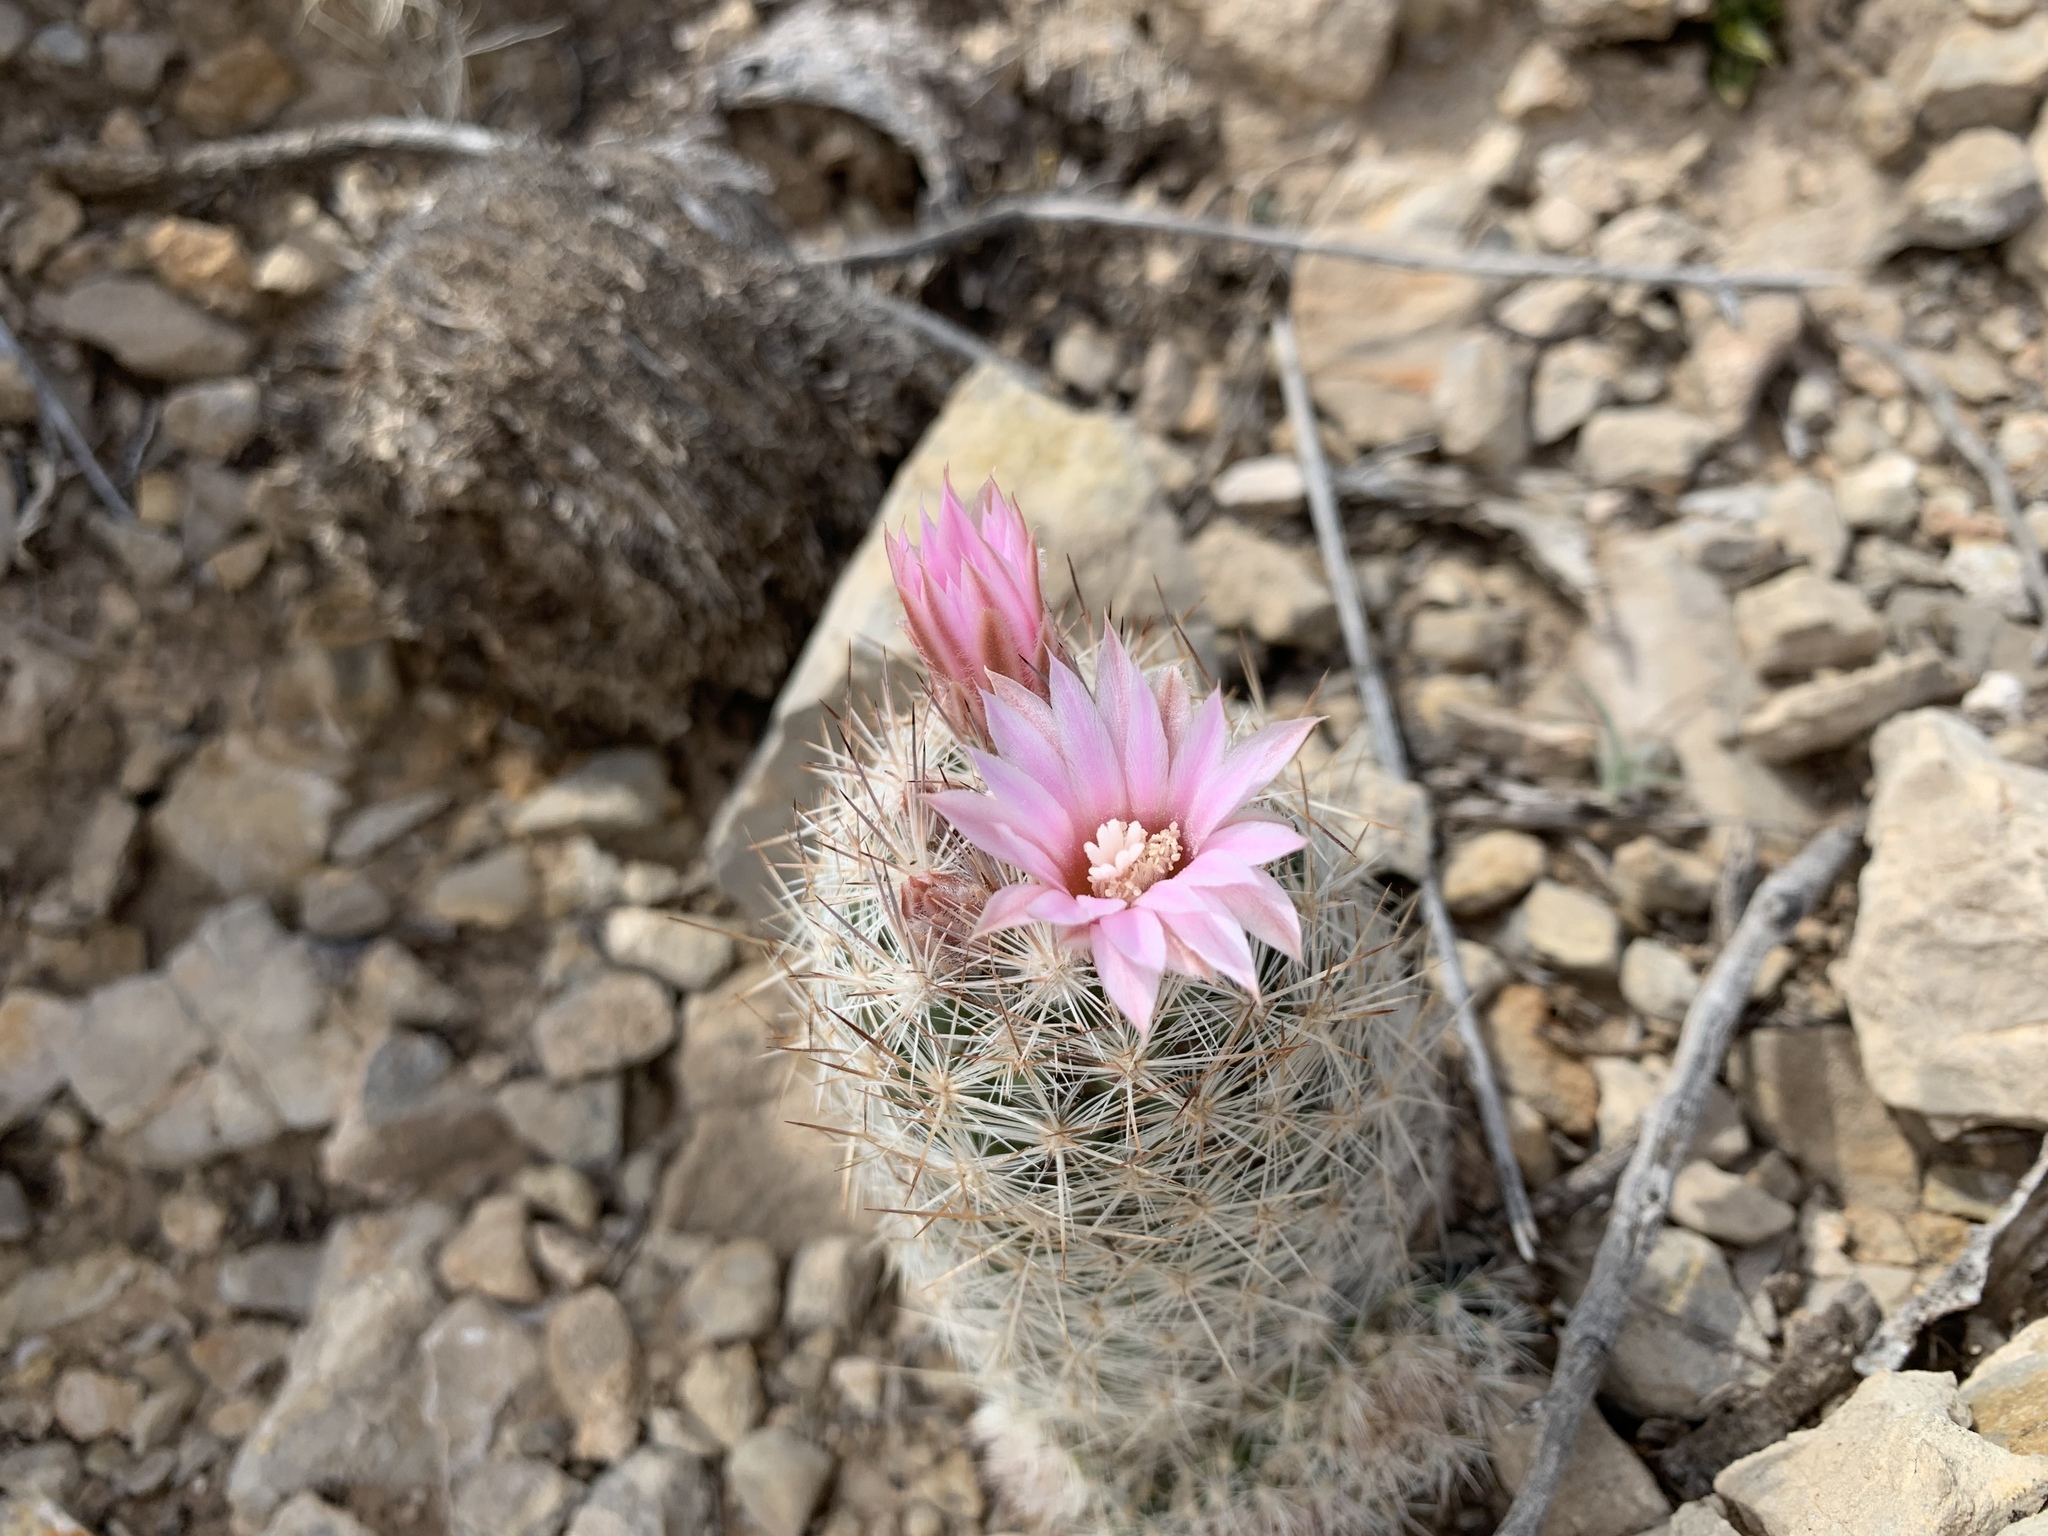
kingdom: Plantae
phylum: Tracheophyta
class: Magnoliopsida
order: Caryophyllales
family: Cactaceae
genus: Pelecyphora
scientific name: Pelecyphora tuberculosa
